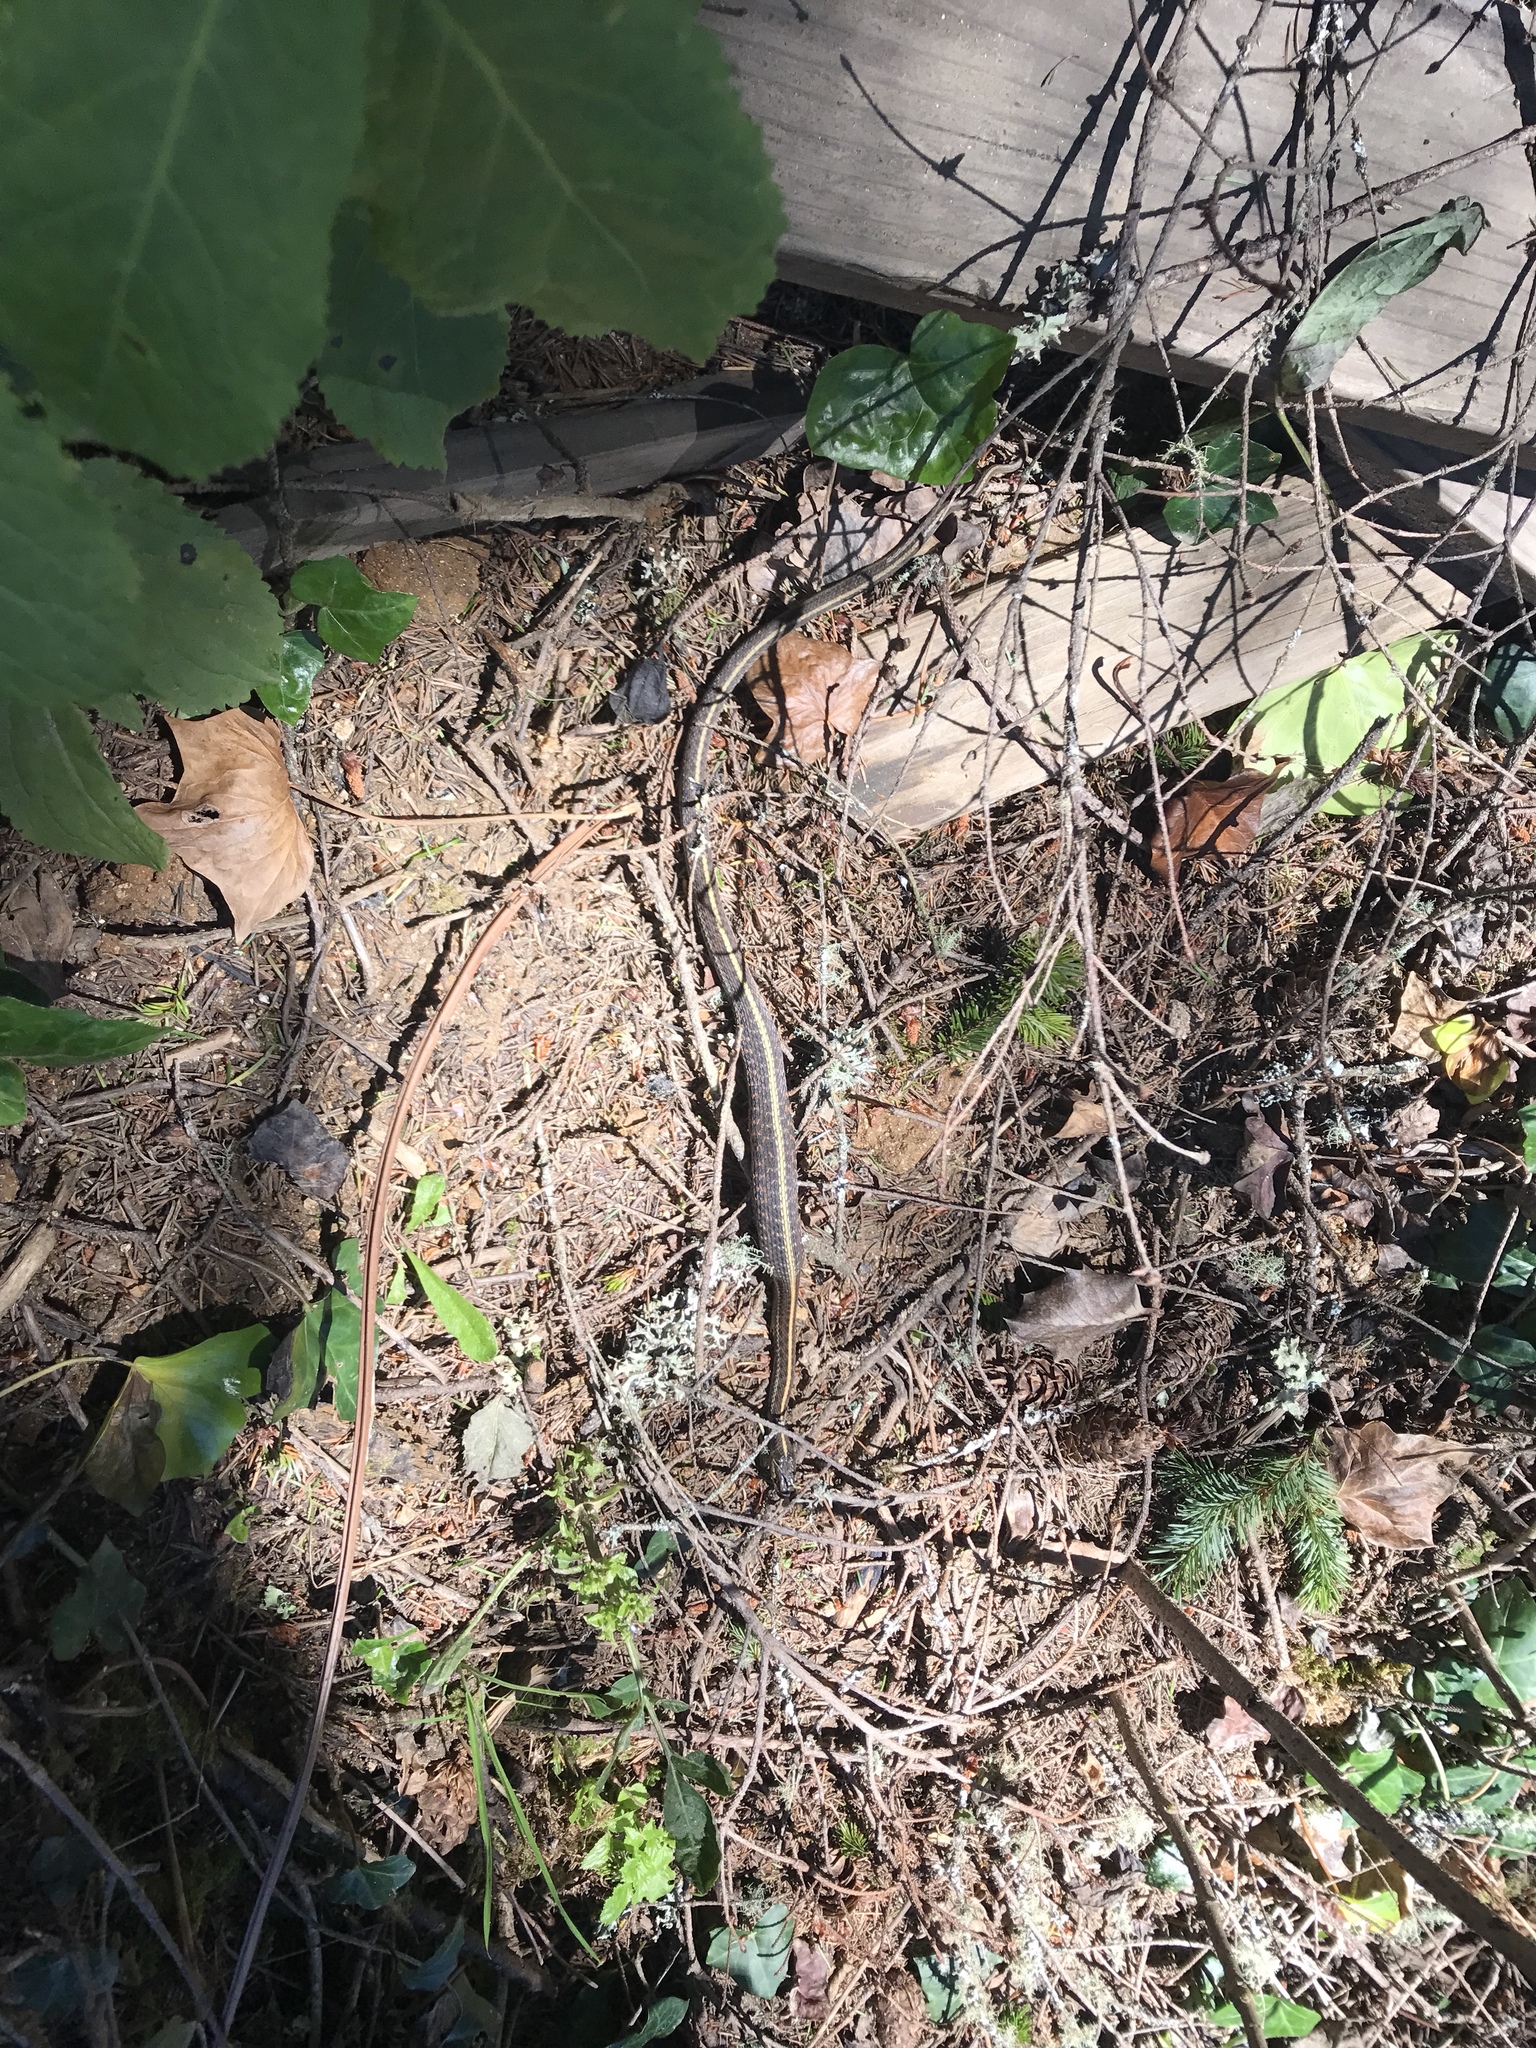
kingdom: Animalia
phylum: Chordata
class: Squamata
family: Colubridae
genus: Thamnophis
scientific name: Thamnophis elegans
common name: Western terrestrial garter snake
